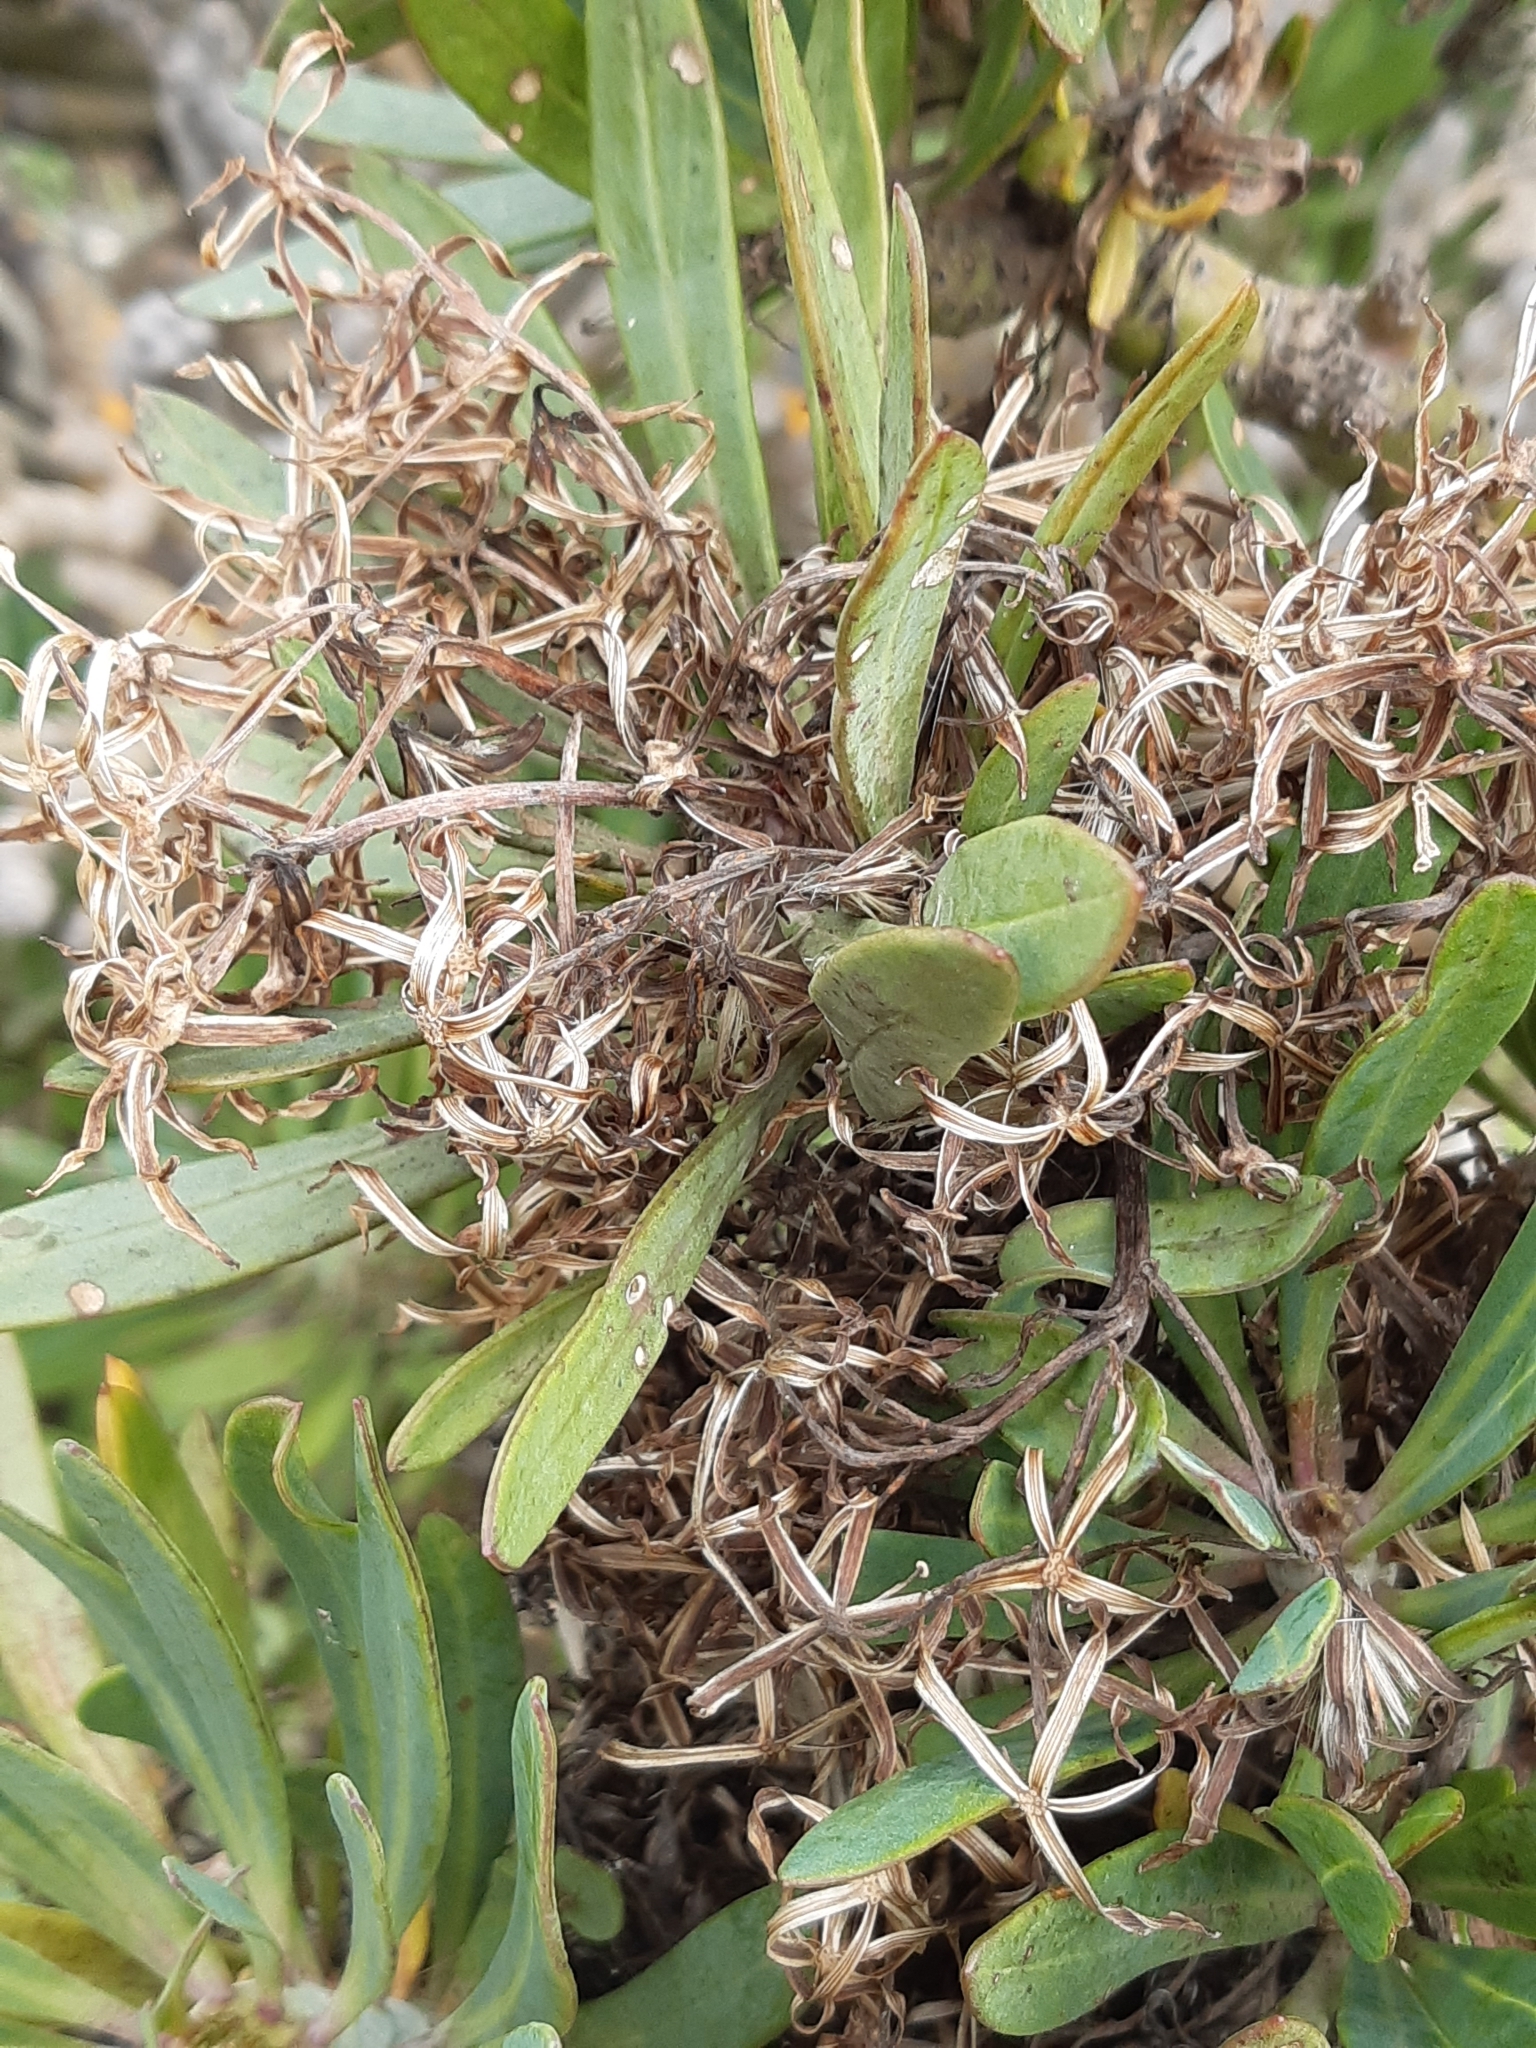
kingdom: Plantae
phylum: Tracheophyta
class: Magnoliopsida
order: Asterales
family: Asteraceae
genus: Kleinia
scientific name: Kleinia neriifolia
